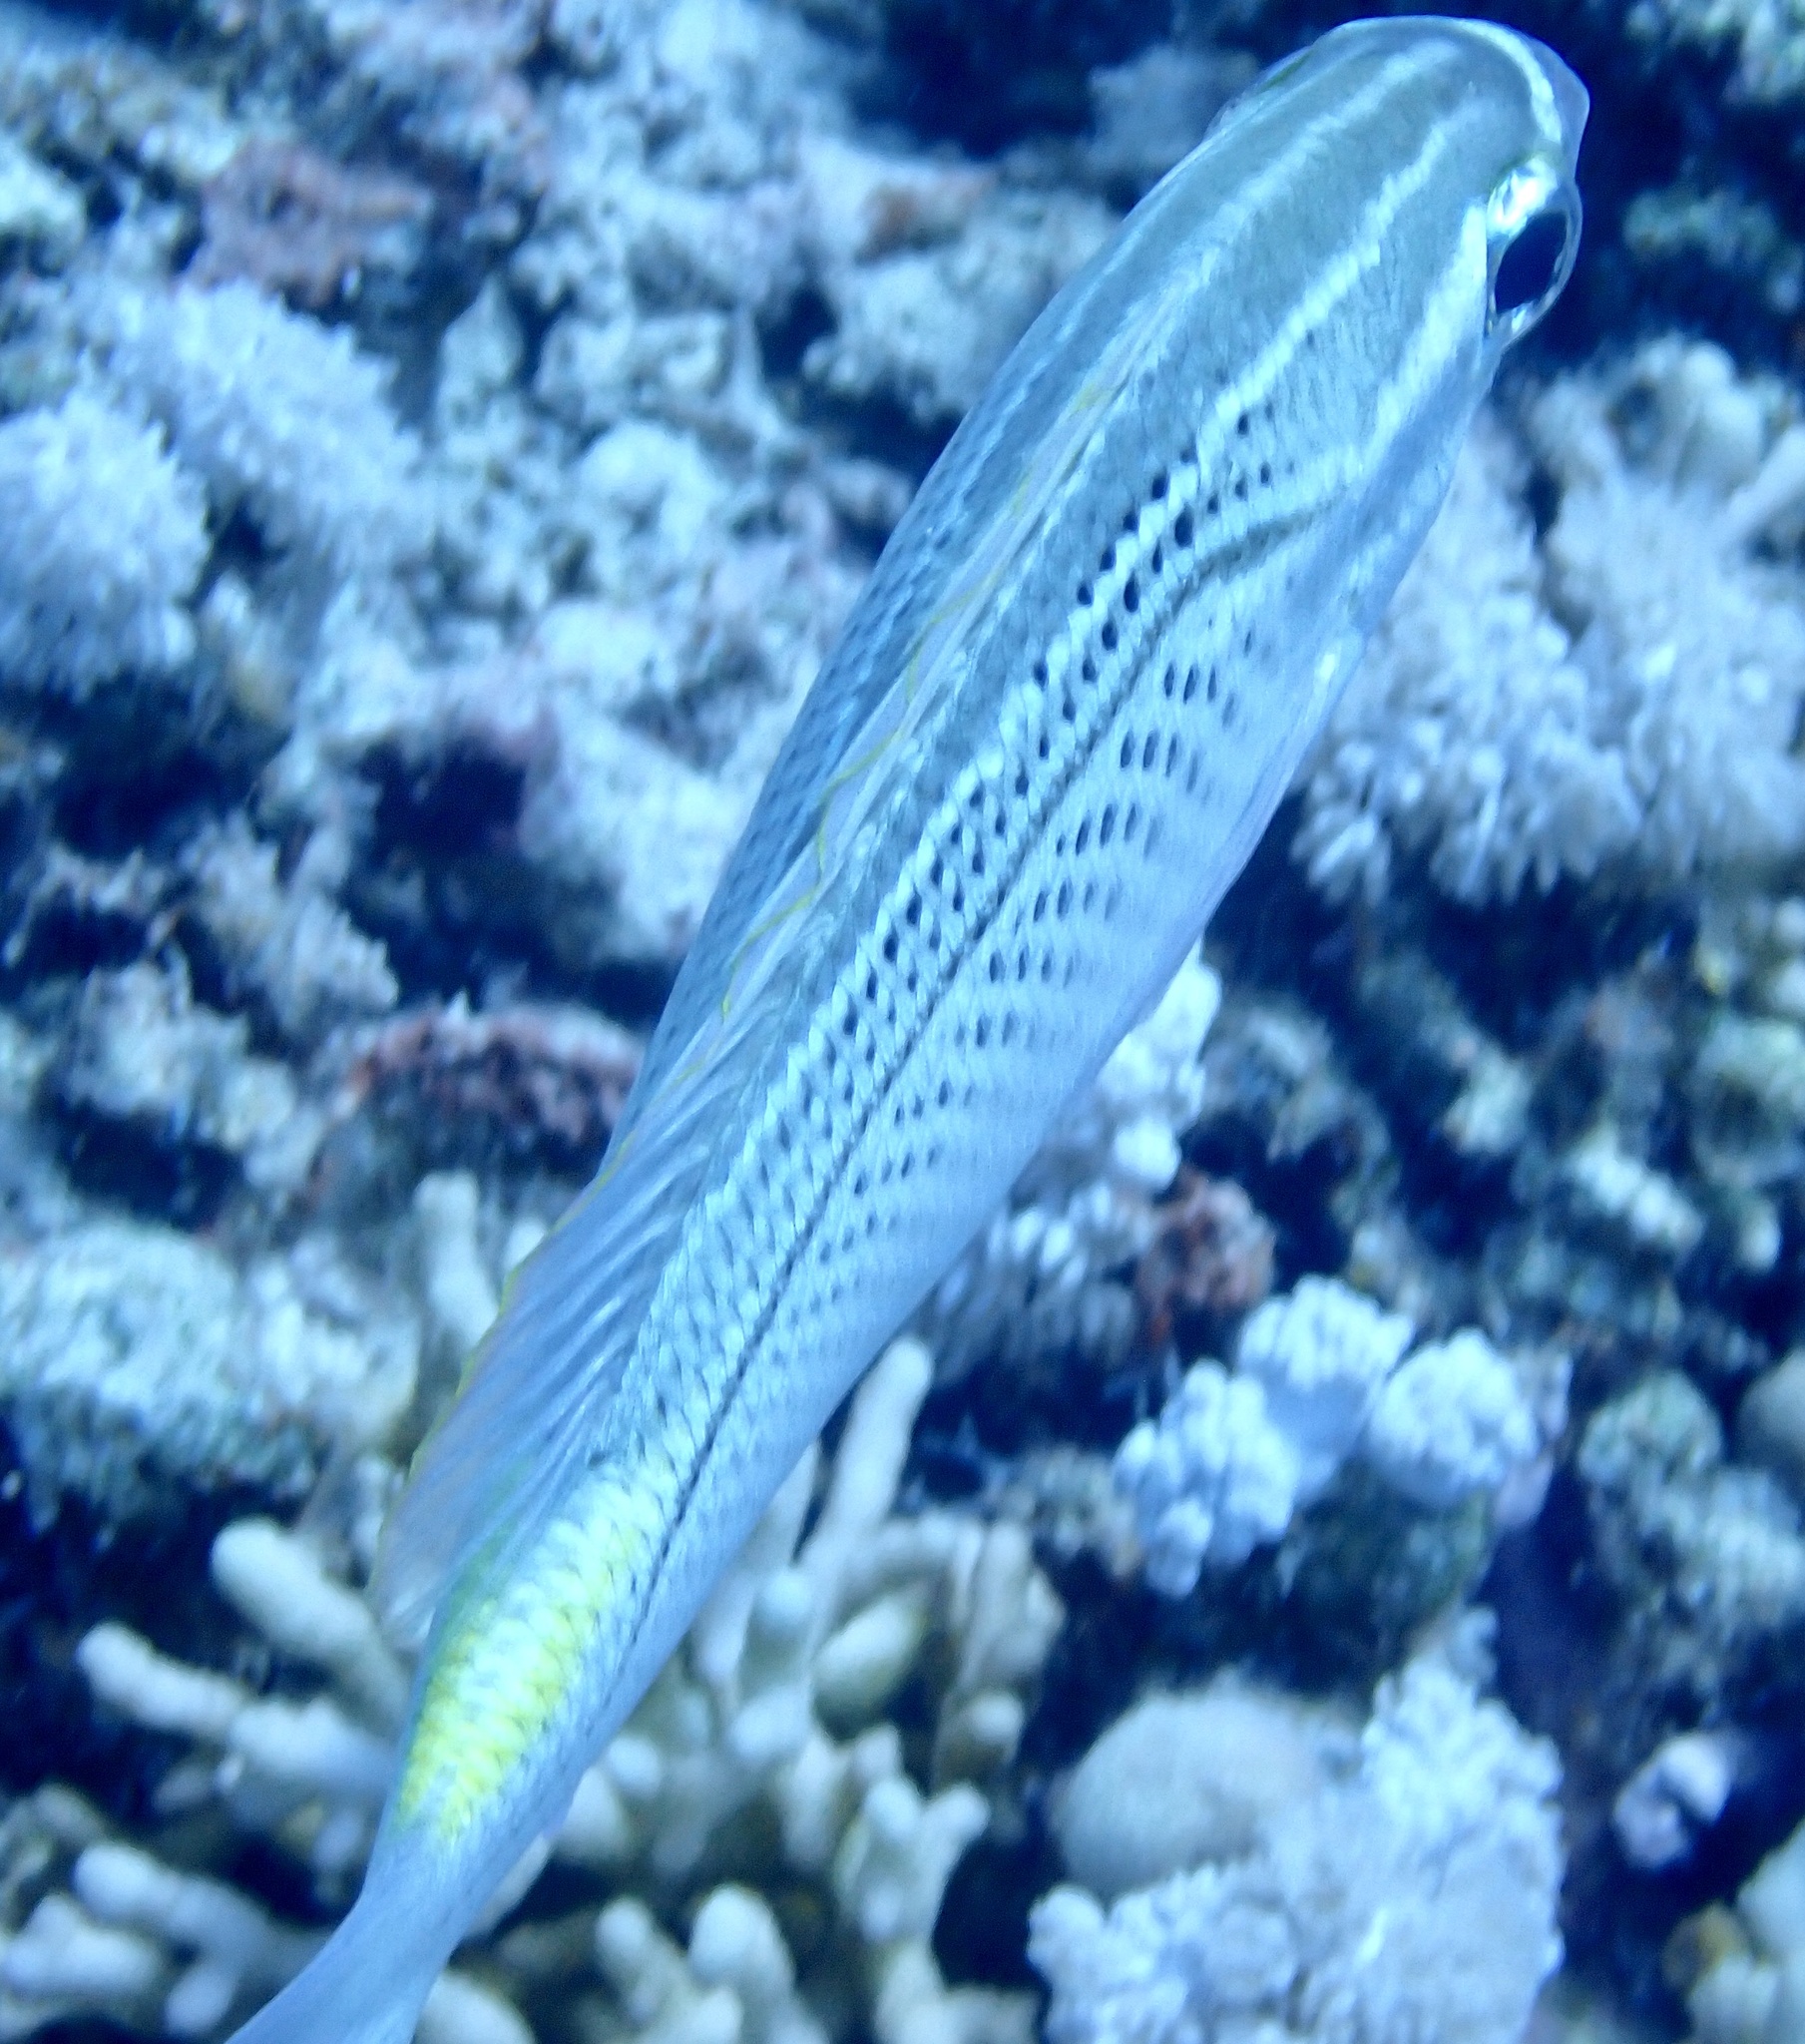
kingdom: Animalia
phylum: Chordata
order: Perciformes
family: Nemipteridae
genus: Scolopsis
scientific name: Scolopsis ghanam
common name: Arabian monocle bream
